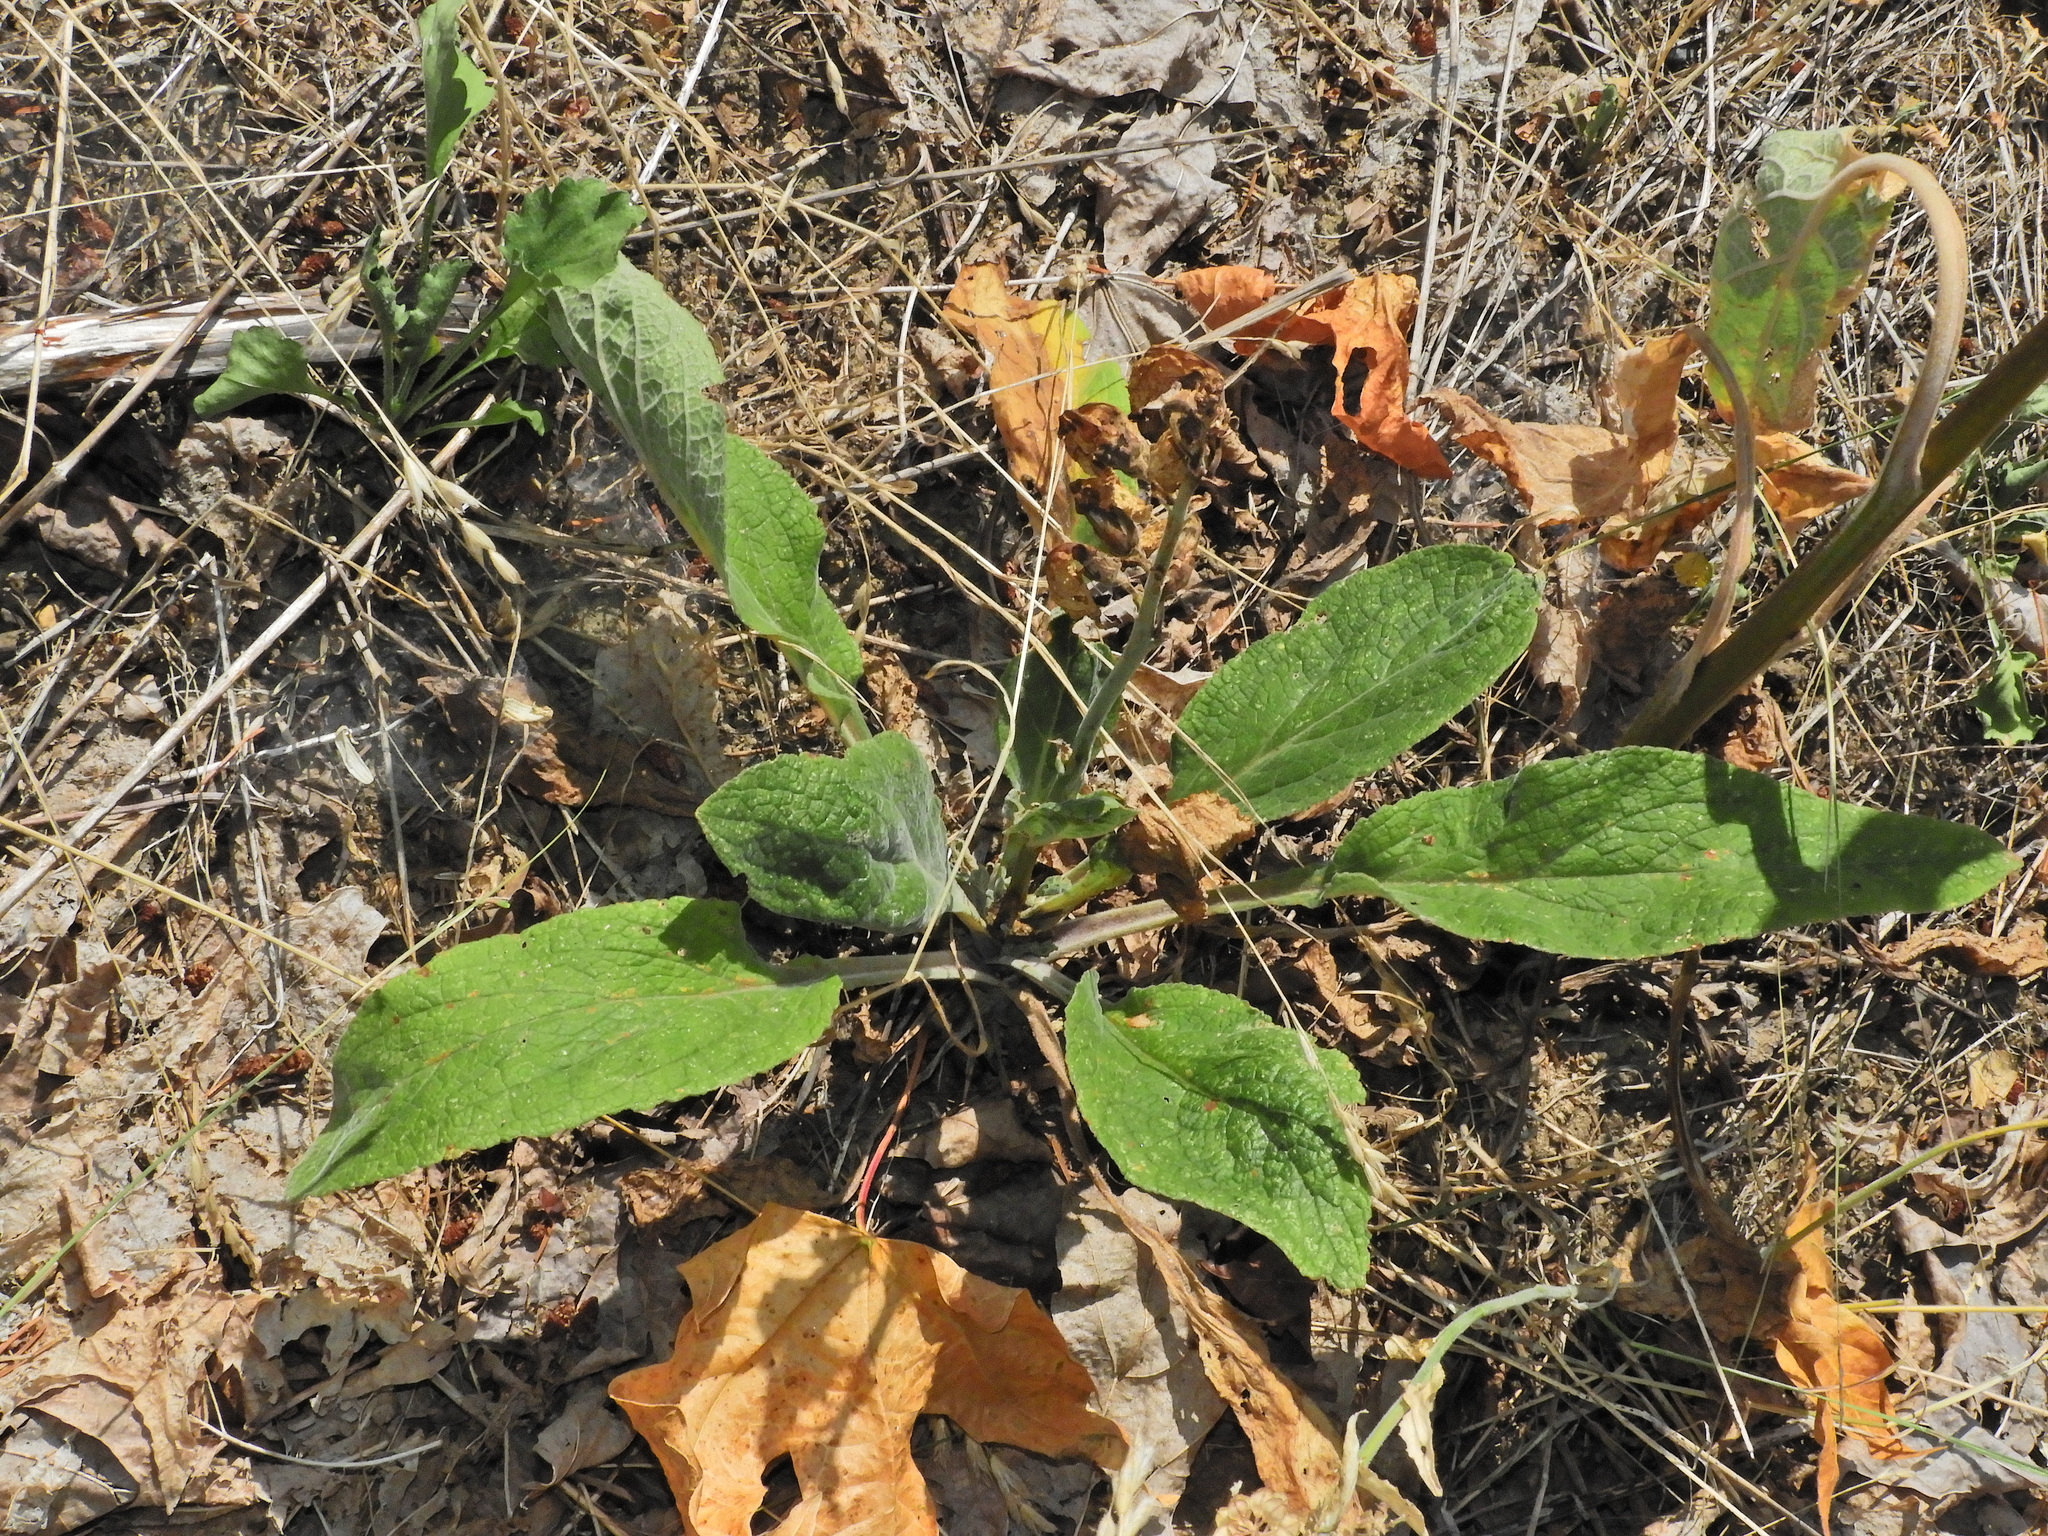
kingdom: Plantae
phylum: Tracheophyta
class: Magnoliopsida
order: Lamiales
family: Plantaginaceae
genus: Digitalis
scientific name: Digitalis purpurea
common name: Foxglove
